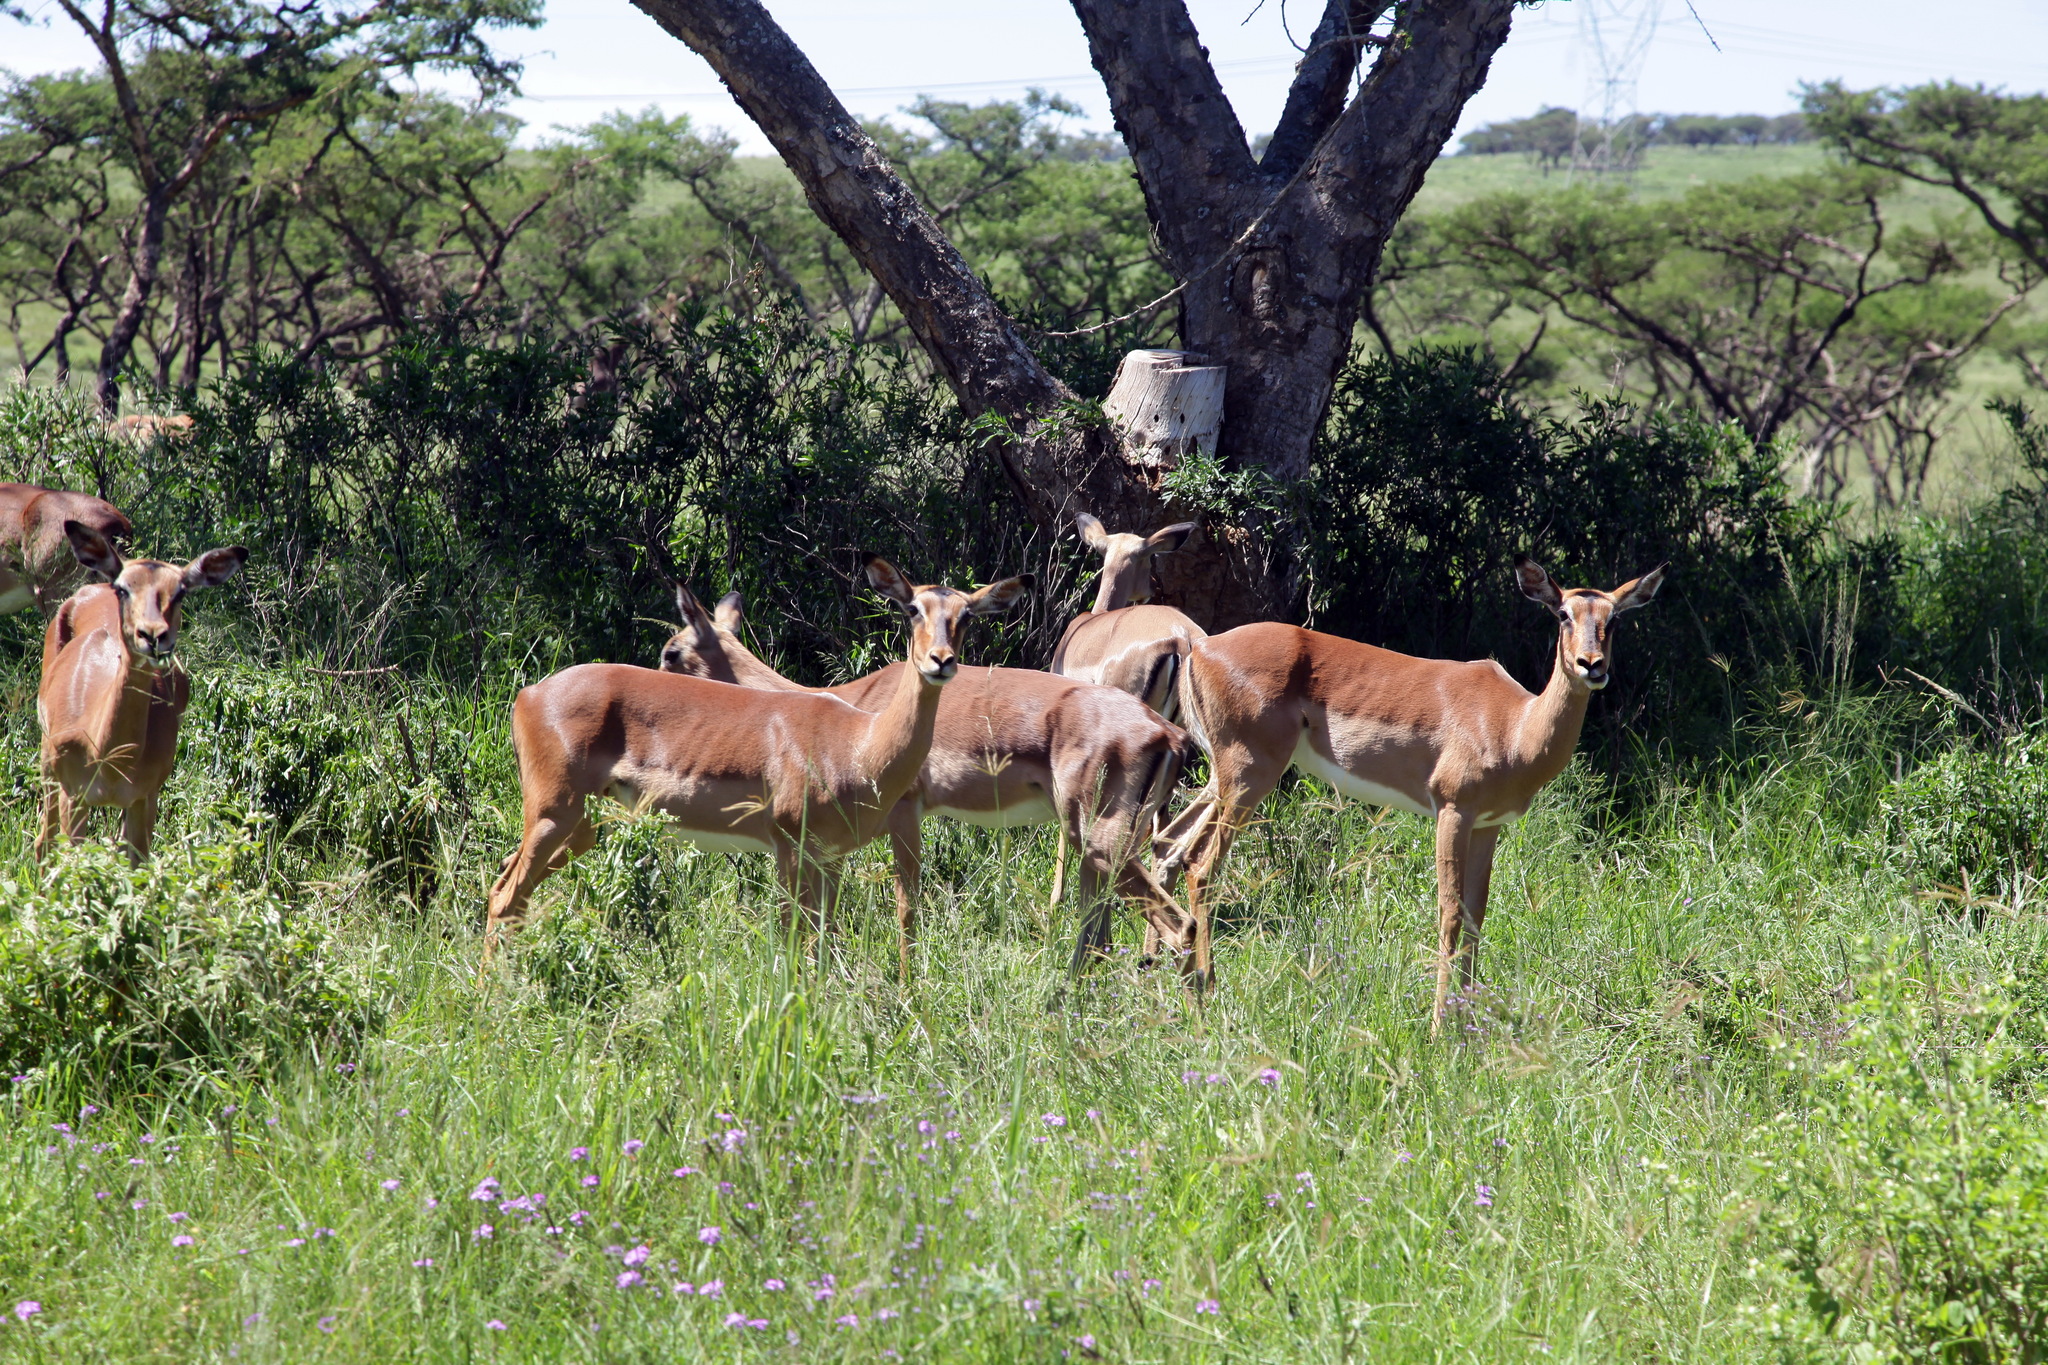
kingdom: Animalia
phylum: Chordata
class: Mammalia
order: Artiodactyla
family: Bovidae
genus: Aepyceros
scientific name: Aepyceros melampus
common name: Impala
